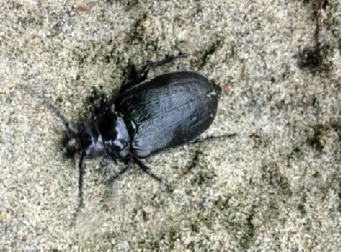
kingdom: Animalia
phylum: Arthropoda
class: Insecta
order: Coleoptera
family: Cerambycidae
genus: Prionus
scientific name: Prionus laticollis
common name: Broad necked prionus
